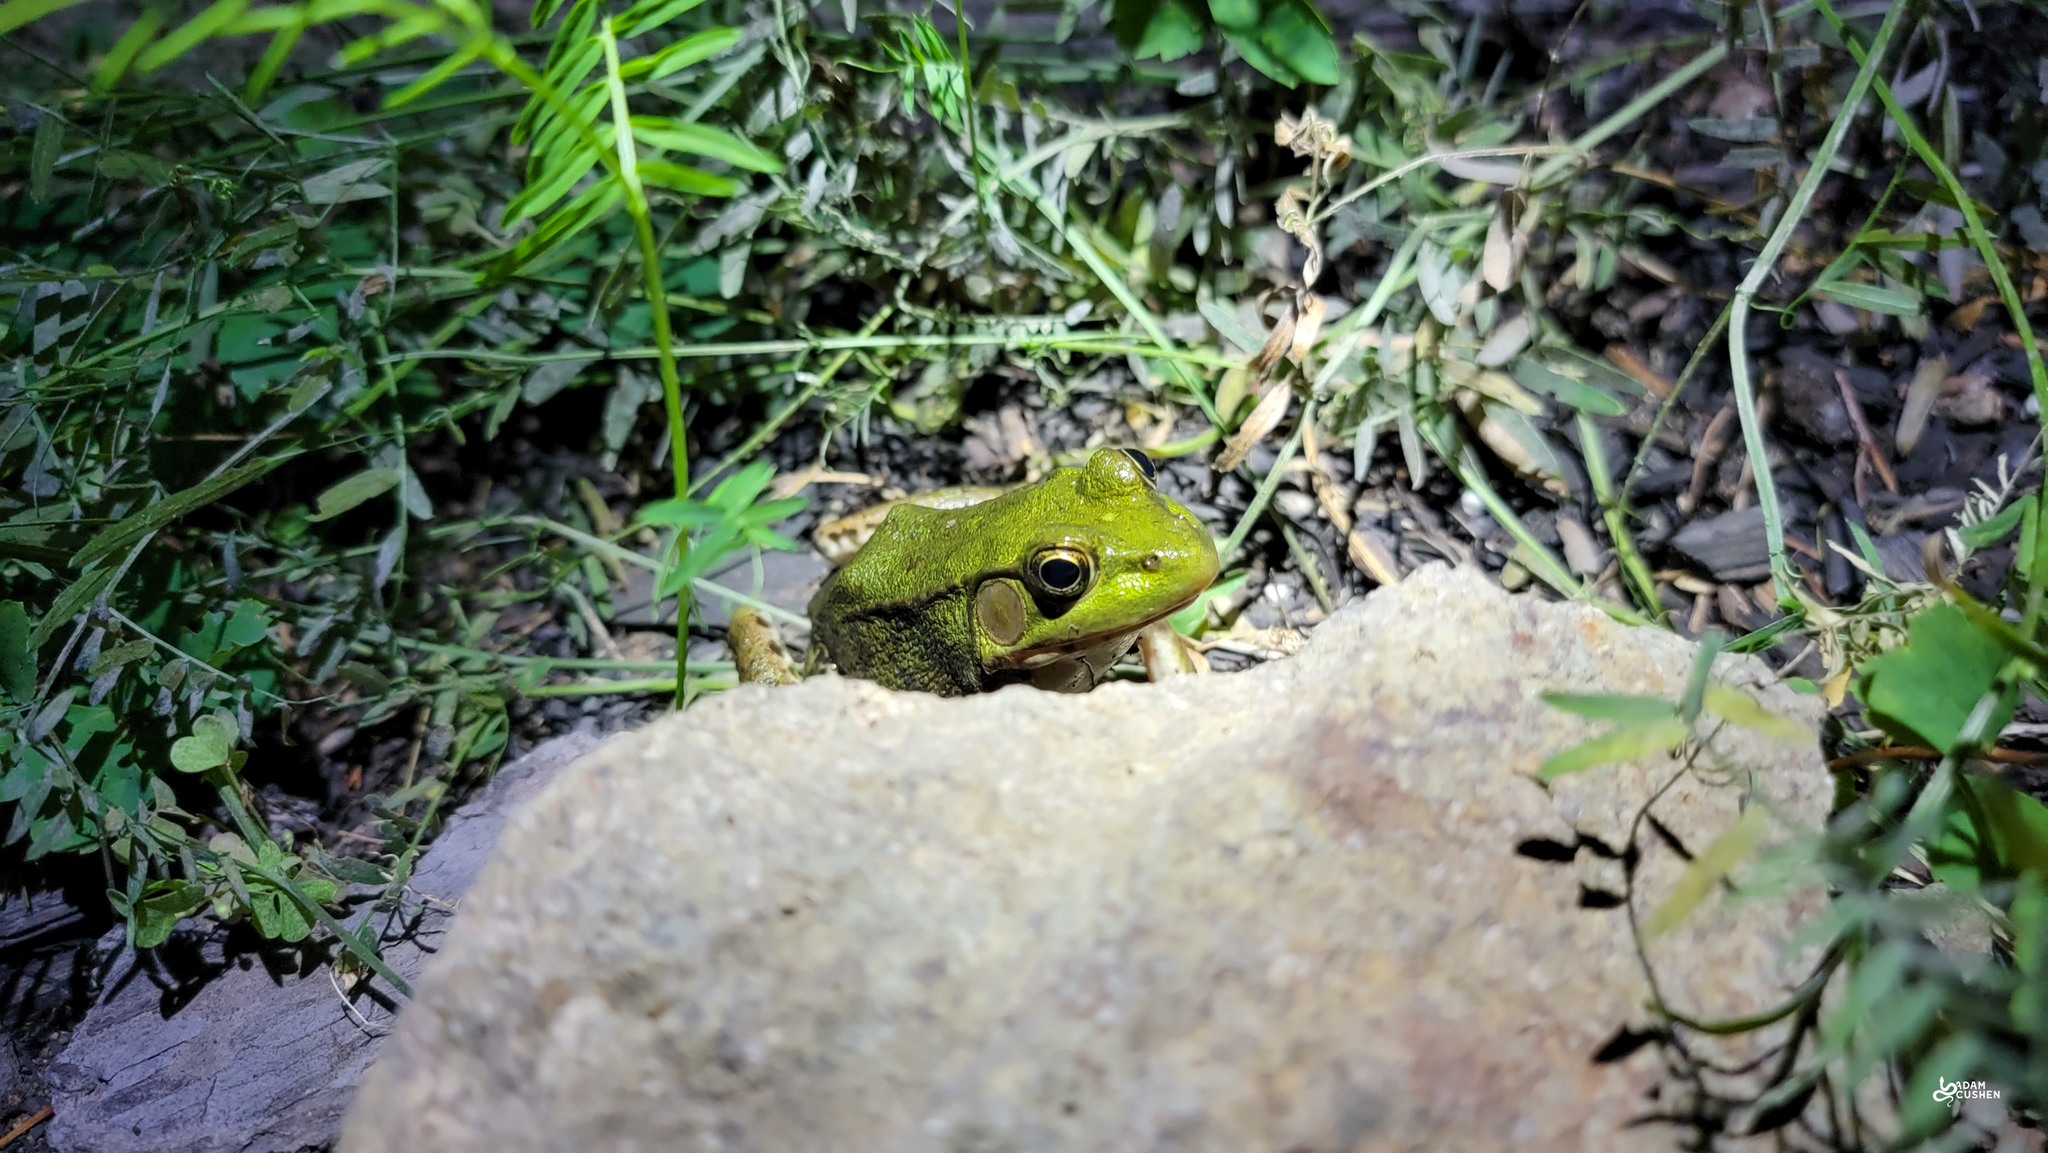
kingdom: Animalia
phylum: Chordata
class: Amphibia
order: Anura
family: Ranidae
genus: Lithobates
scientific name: Lithobates clamitans
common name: Green frog
